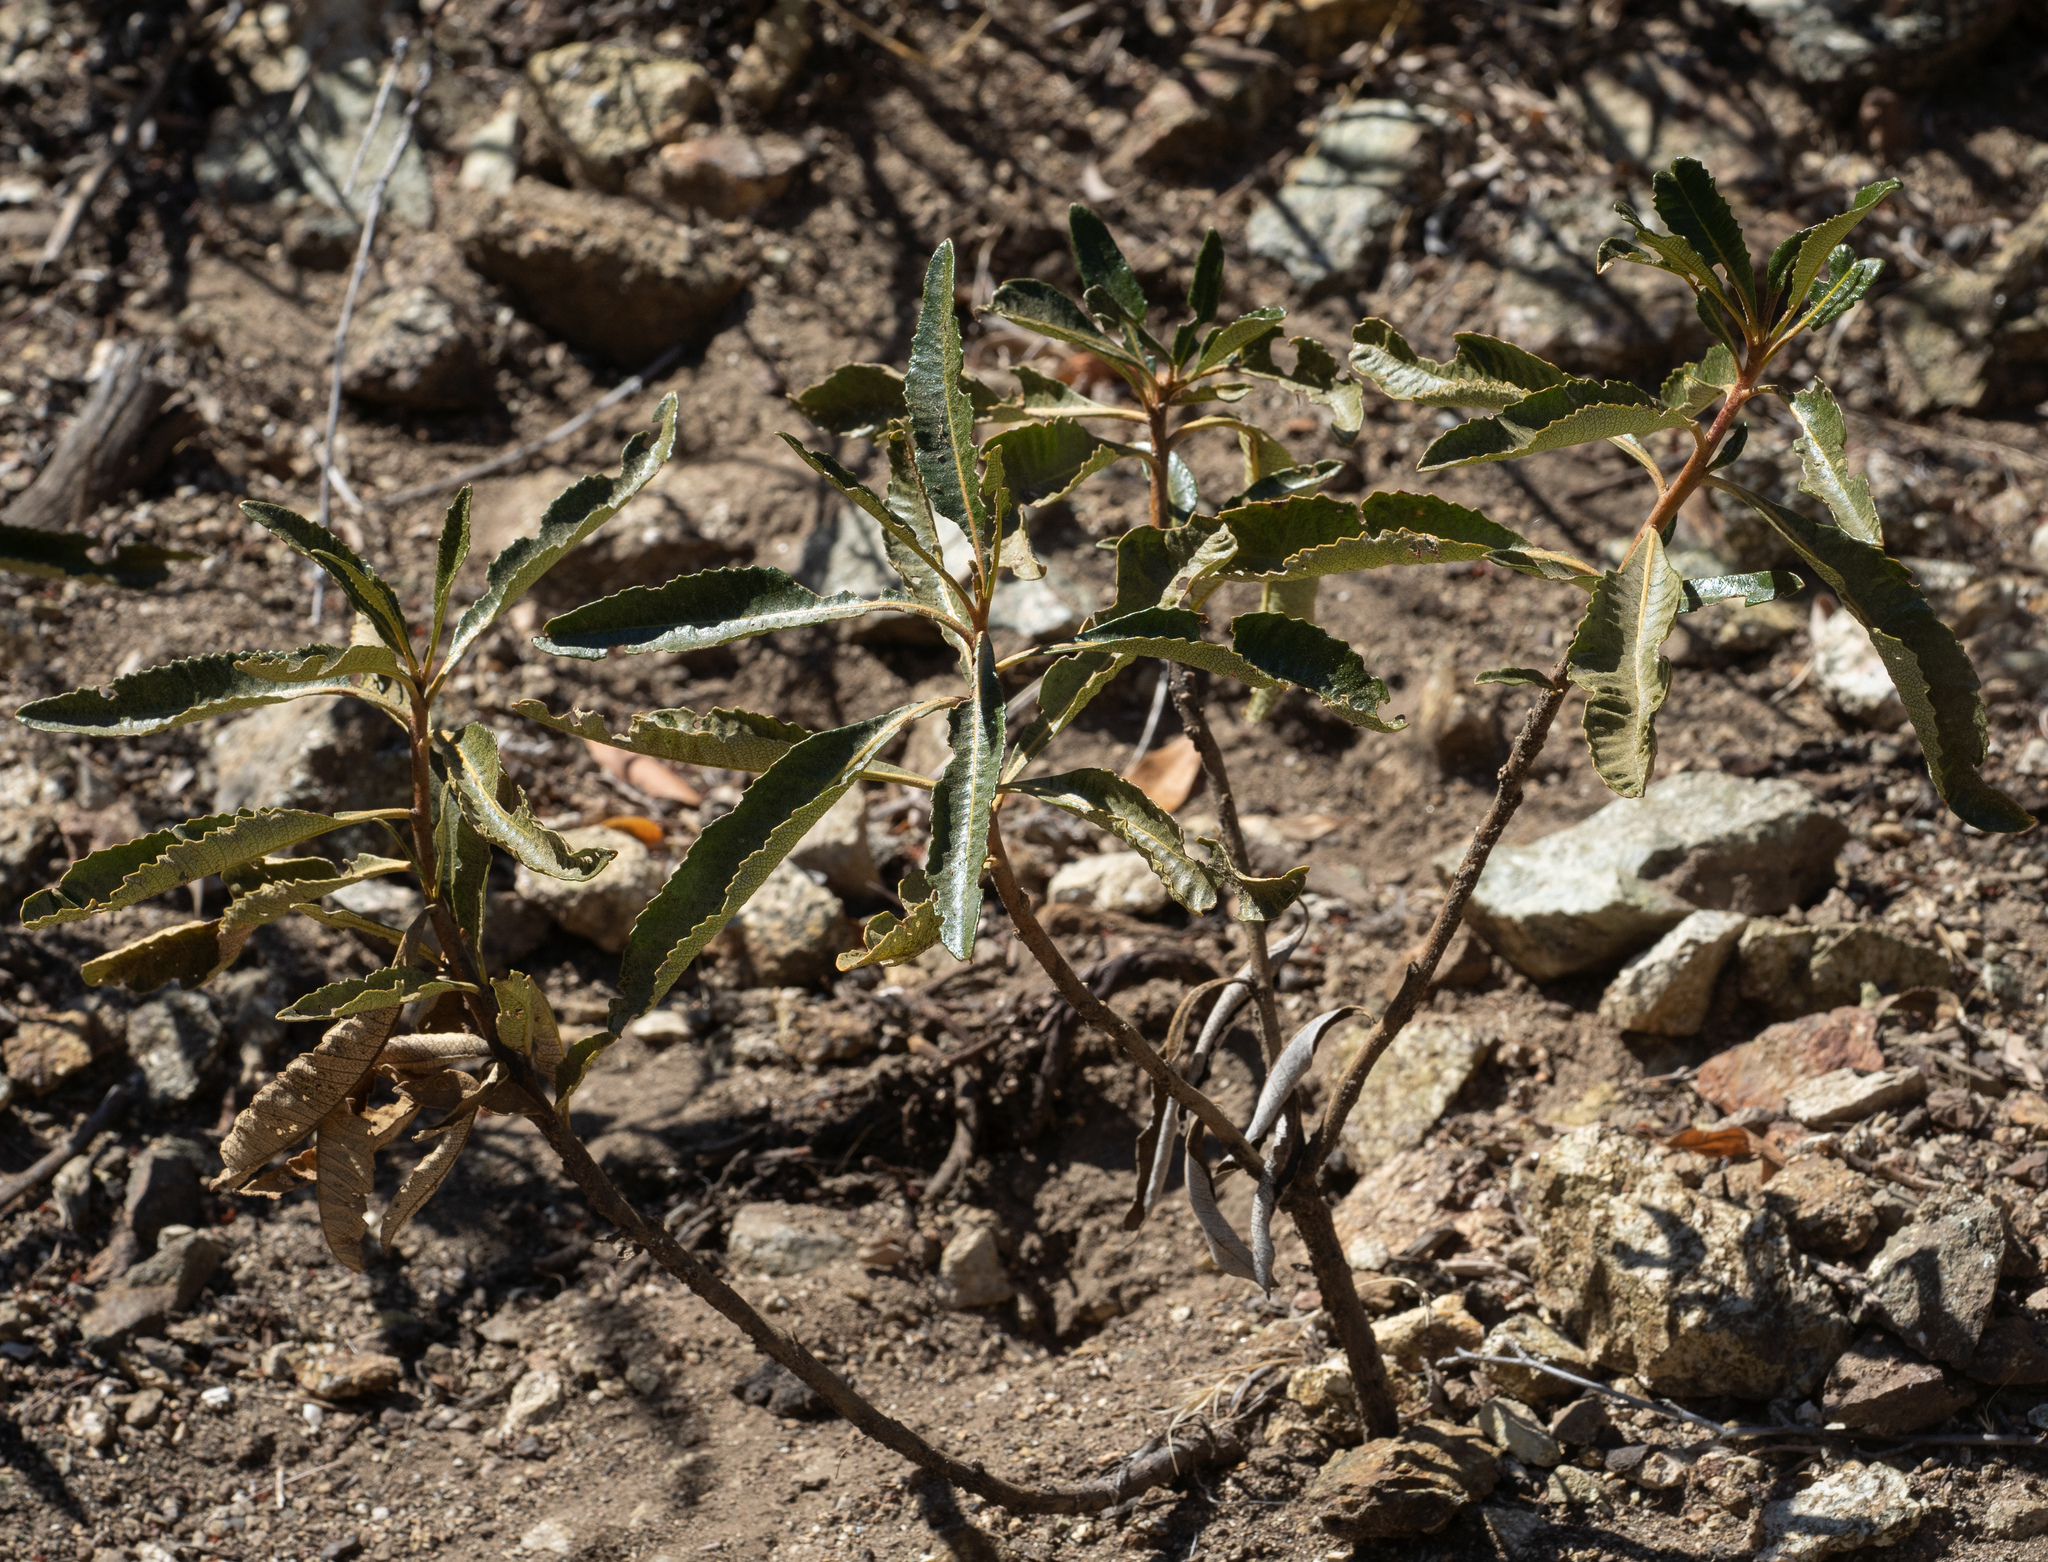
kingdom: Plantae
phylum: Tracheophyta
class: Magnoliopsida
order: Boraginales
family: Namaceae
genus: Eriodictyon
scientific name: Eriodictyon trichocalyx
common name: Hairy yerba-santa
